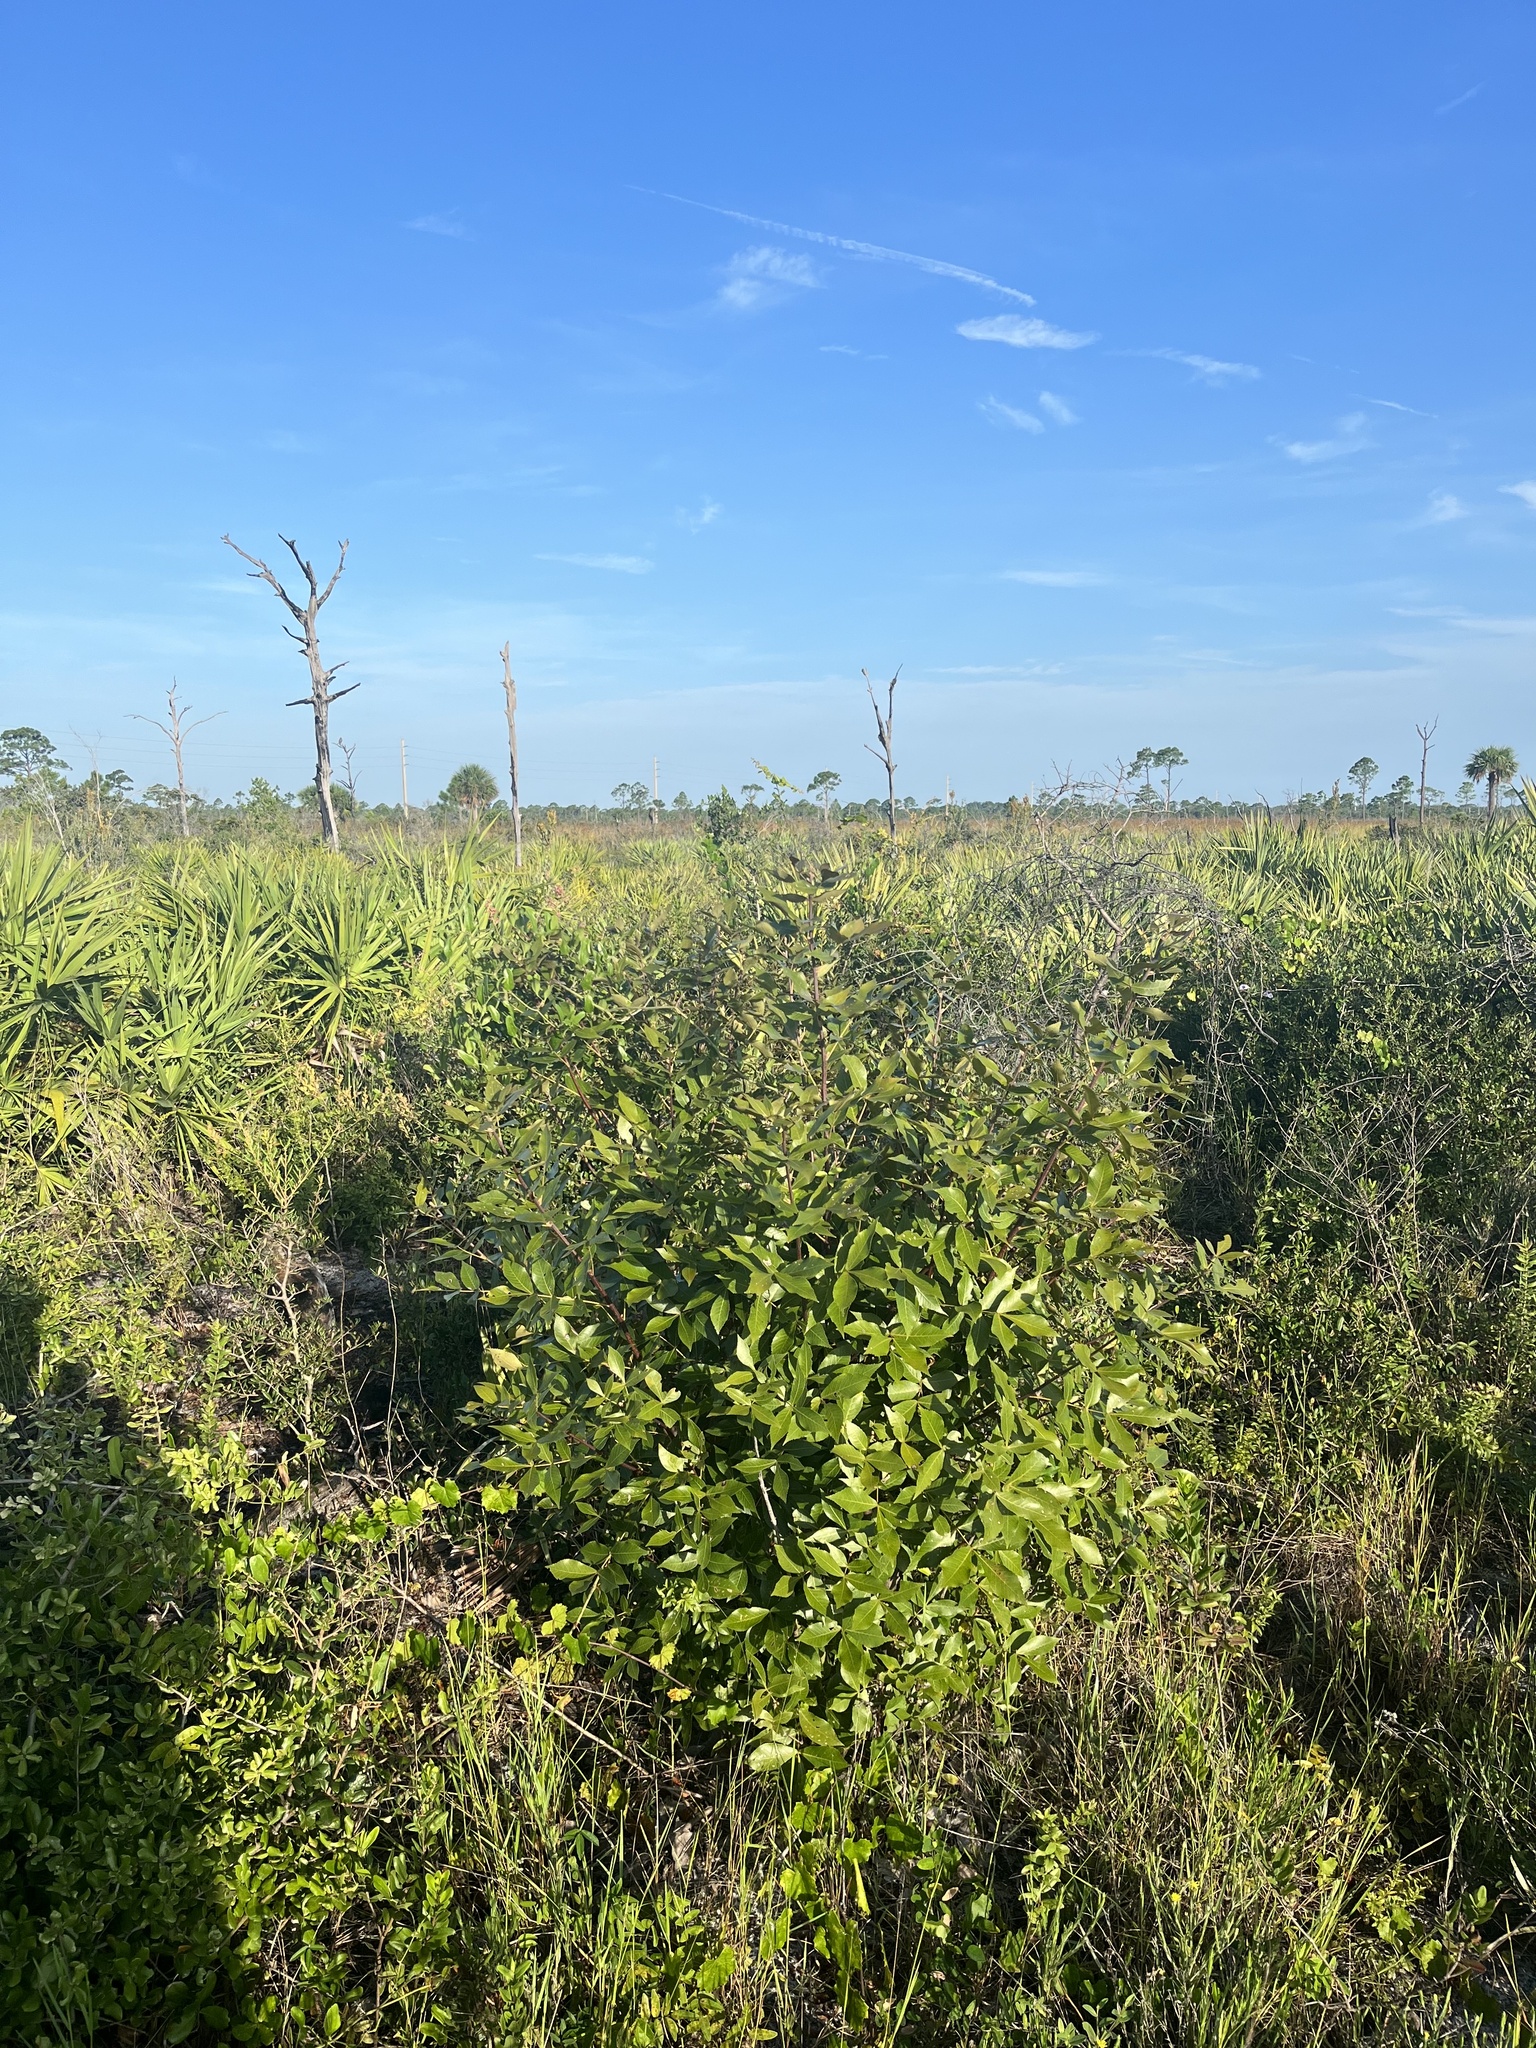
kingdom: Plantae
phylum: Tracheophyta
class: Magnoliopsida
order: Fagales
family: Juglandaceae
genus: Carya
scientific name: Carya floridana
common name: Scrub hickory
